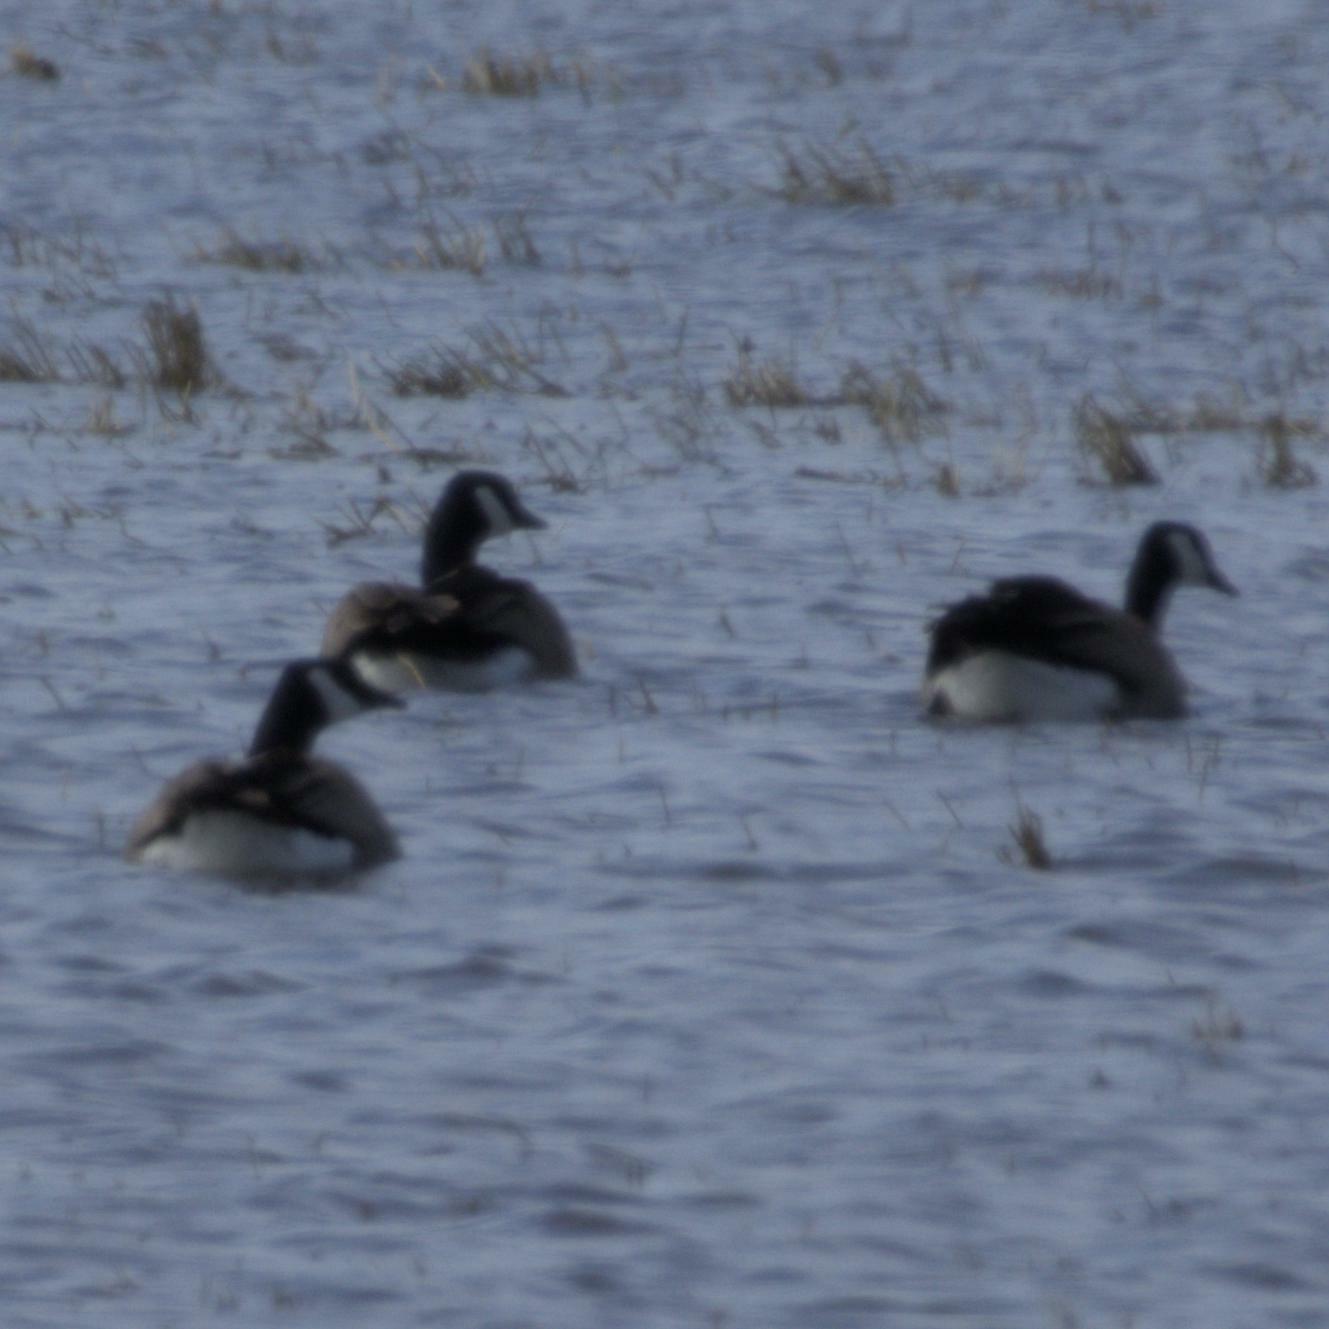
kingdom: Animalia
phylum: Chordata
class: Aves
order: Anseriformes
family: Anatidae
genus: Branta
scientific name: Branta canadensis
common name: Canada goose
